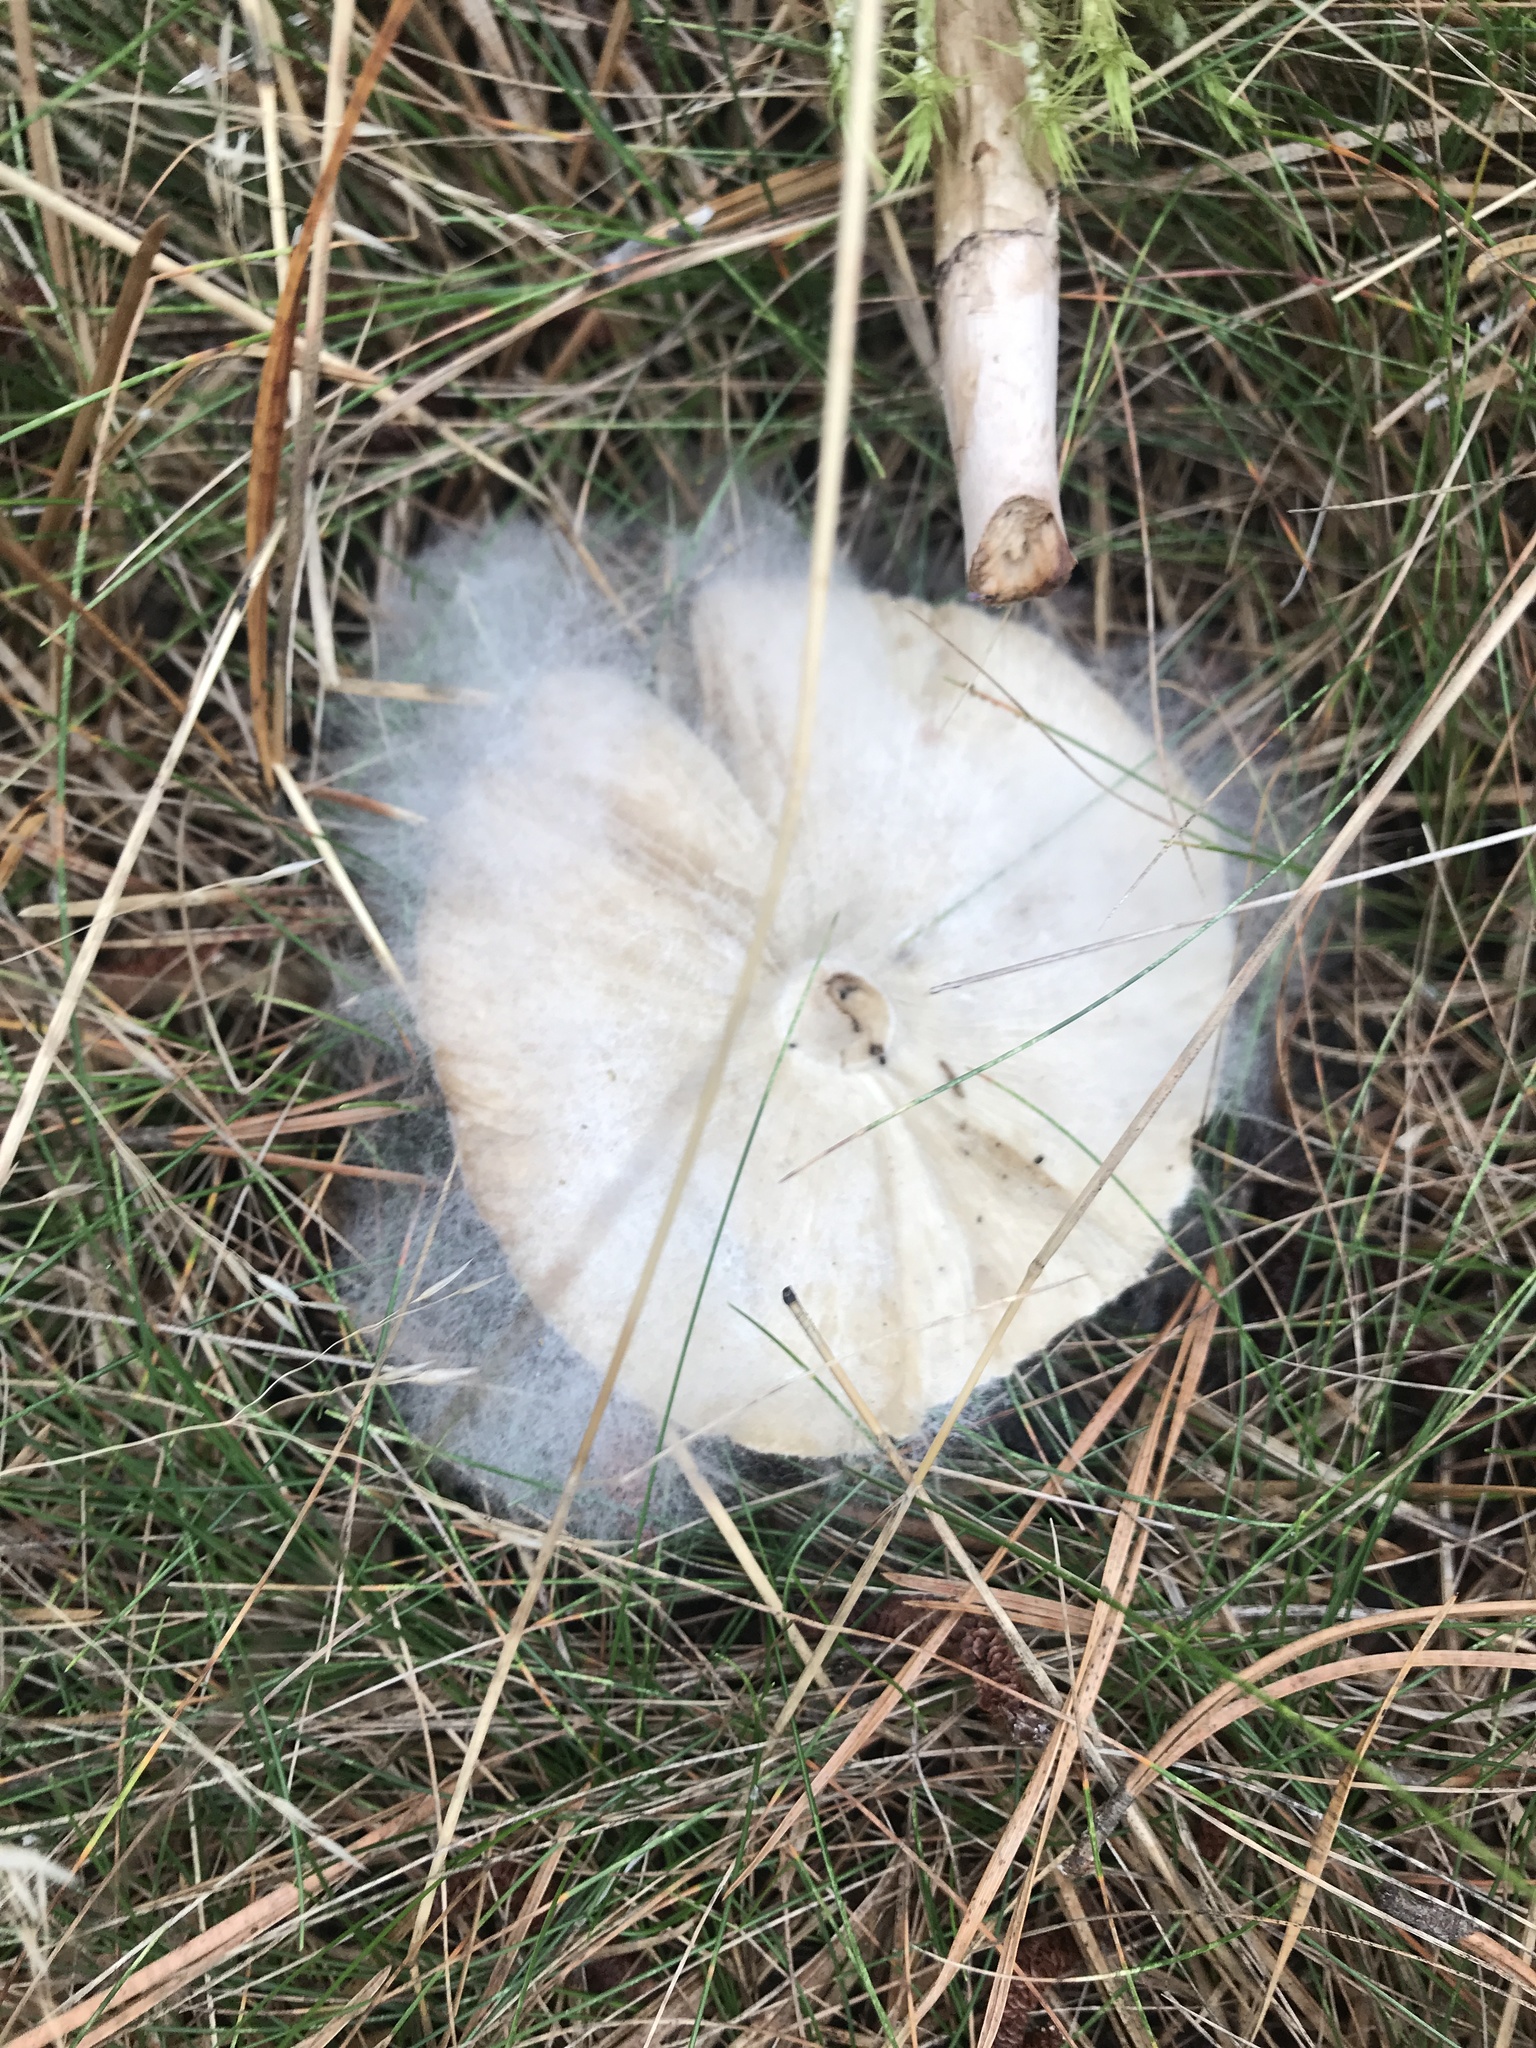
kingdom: Fungi
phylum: Mucoromycota
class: Mucoromycetes
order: Mucorales
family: Rhizopodaceae
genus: Syzygites
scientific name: Syzygites megalocarpus
